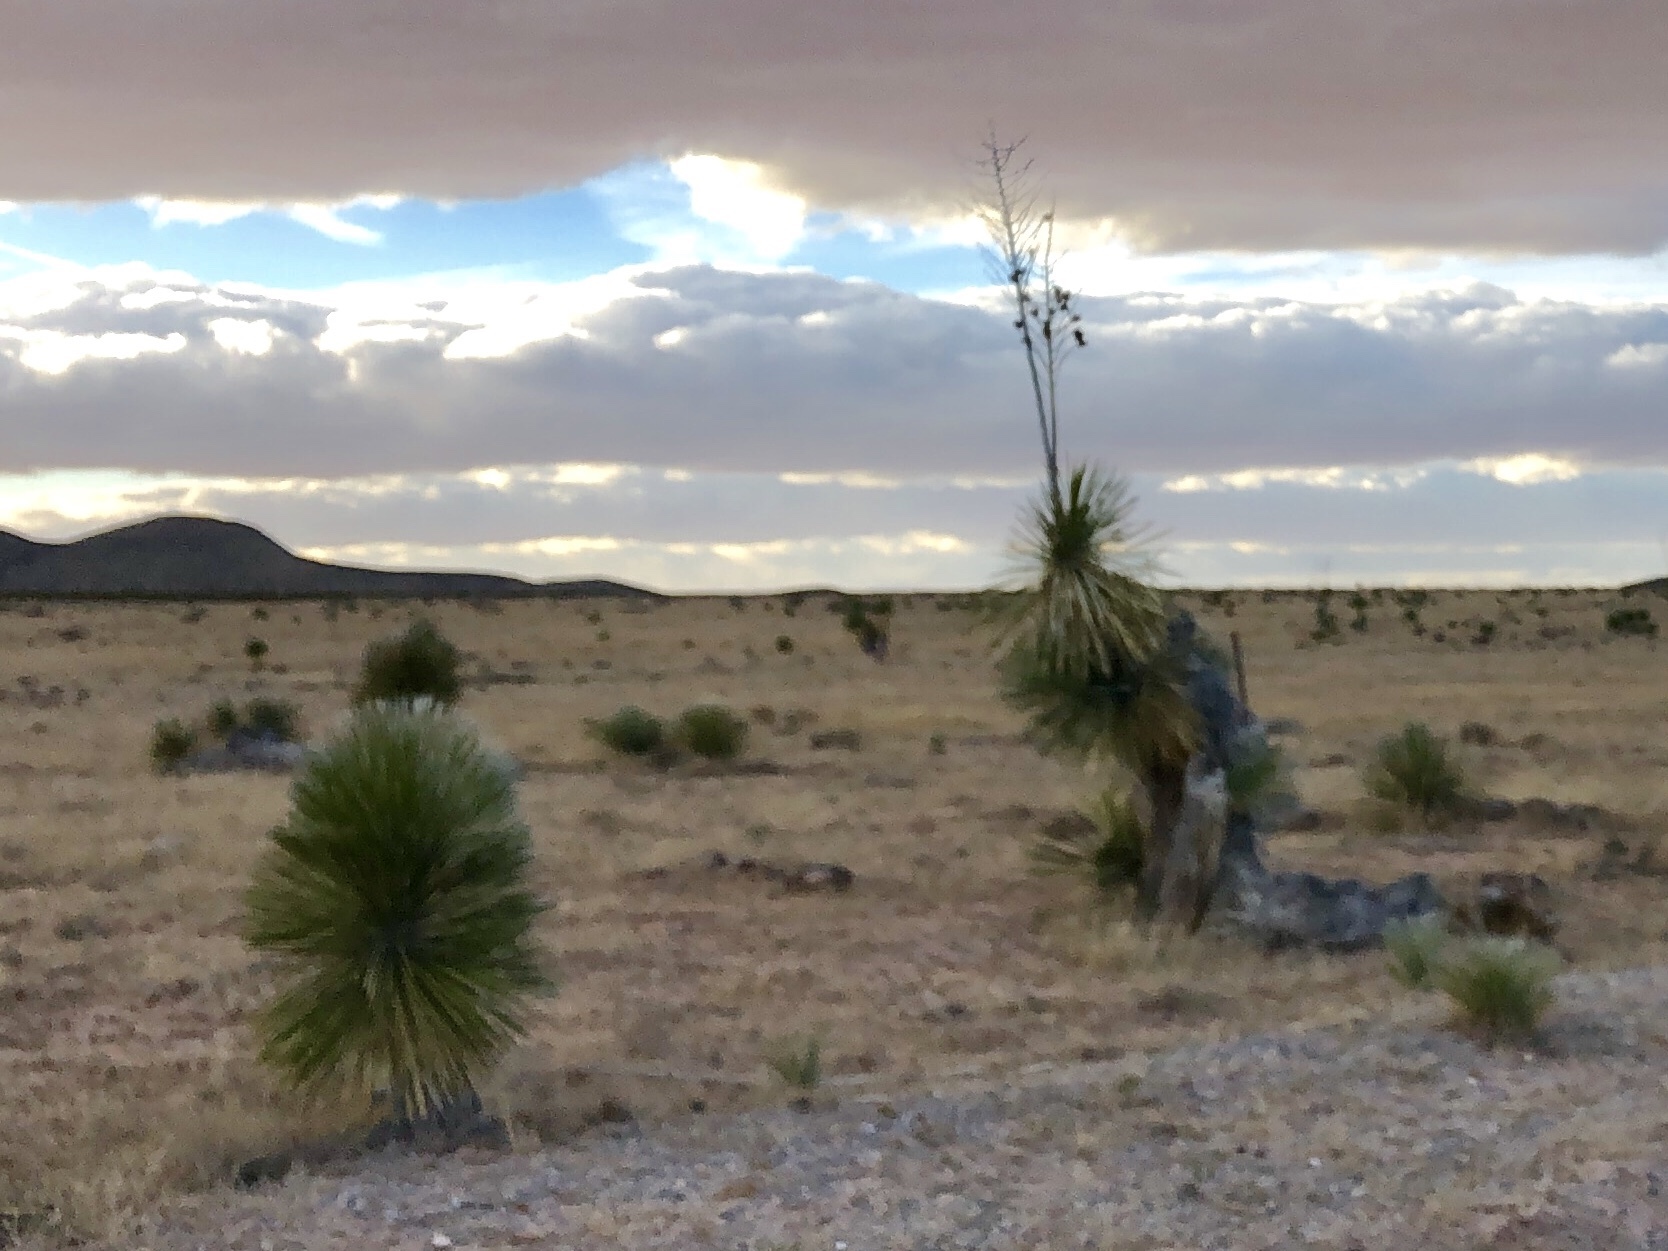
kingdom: Plantae
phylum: Tracheophyta
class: Liliopsida
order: Asparagales
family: Asparagaceae
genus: Yucca
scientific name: Yucca elata
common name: Palmella
